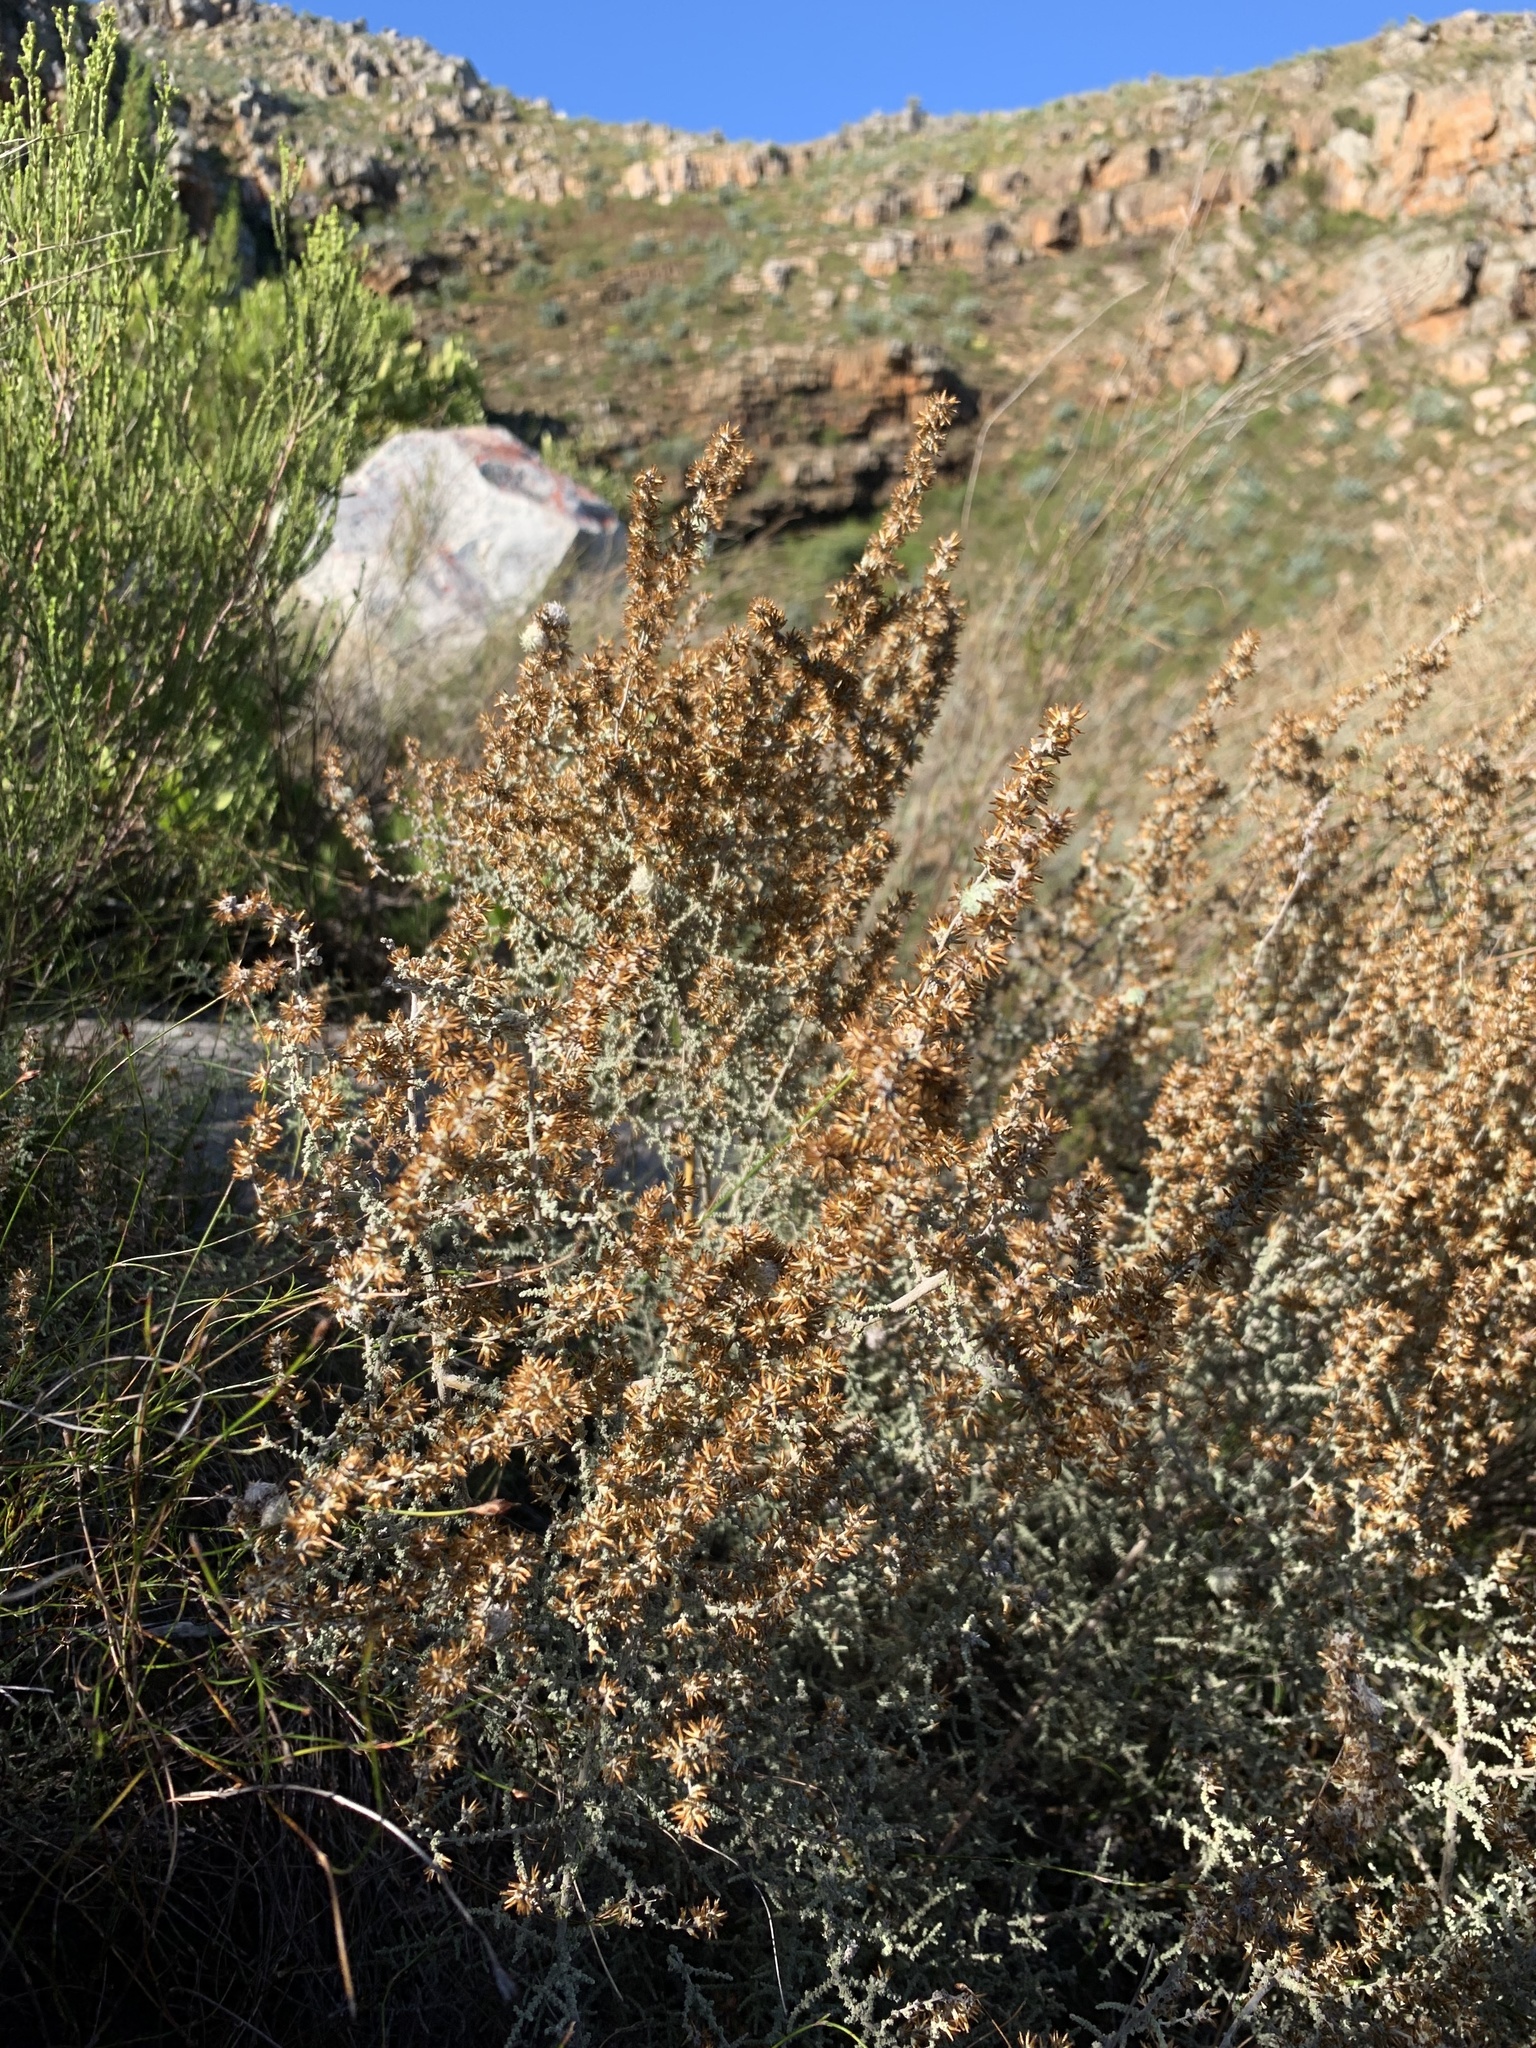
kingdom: Plantae
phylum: Tracheophyta
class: Magnoliopsida
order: Asterales
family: Asteraceae
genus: Seriphium
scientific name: Seriphium plumosum
